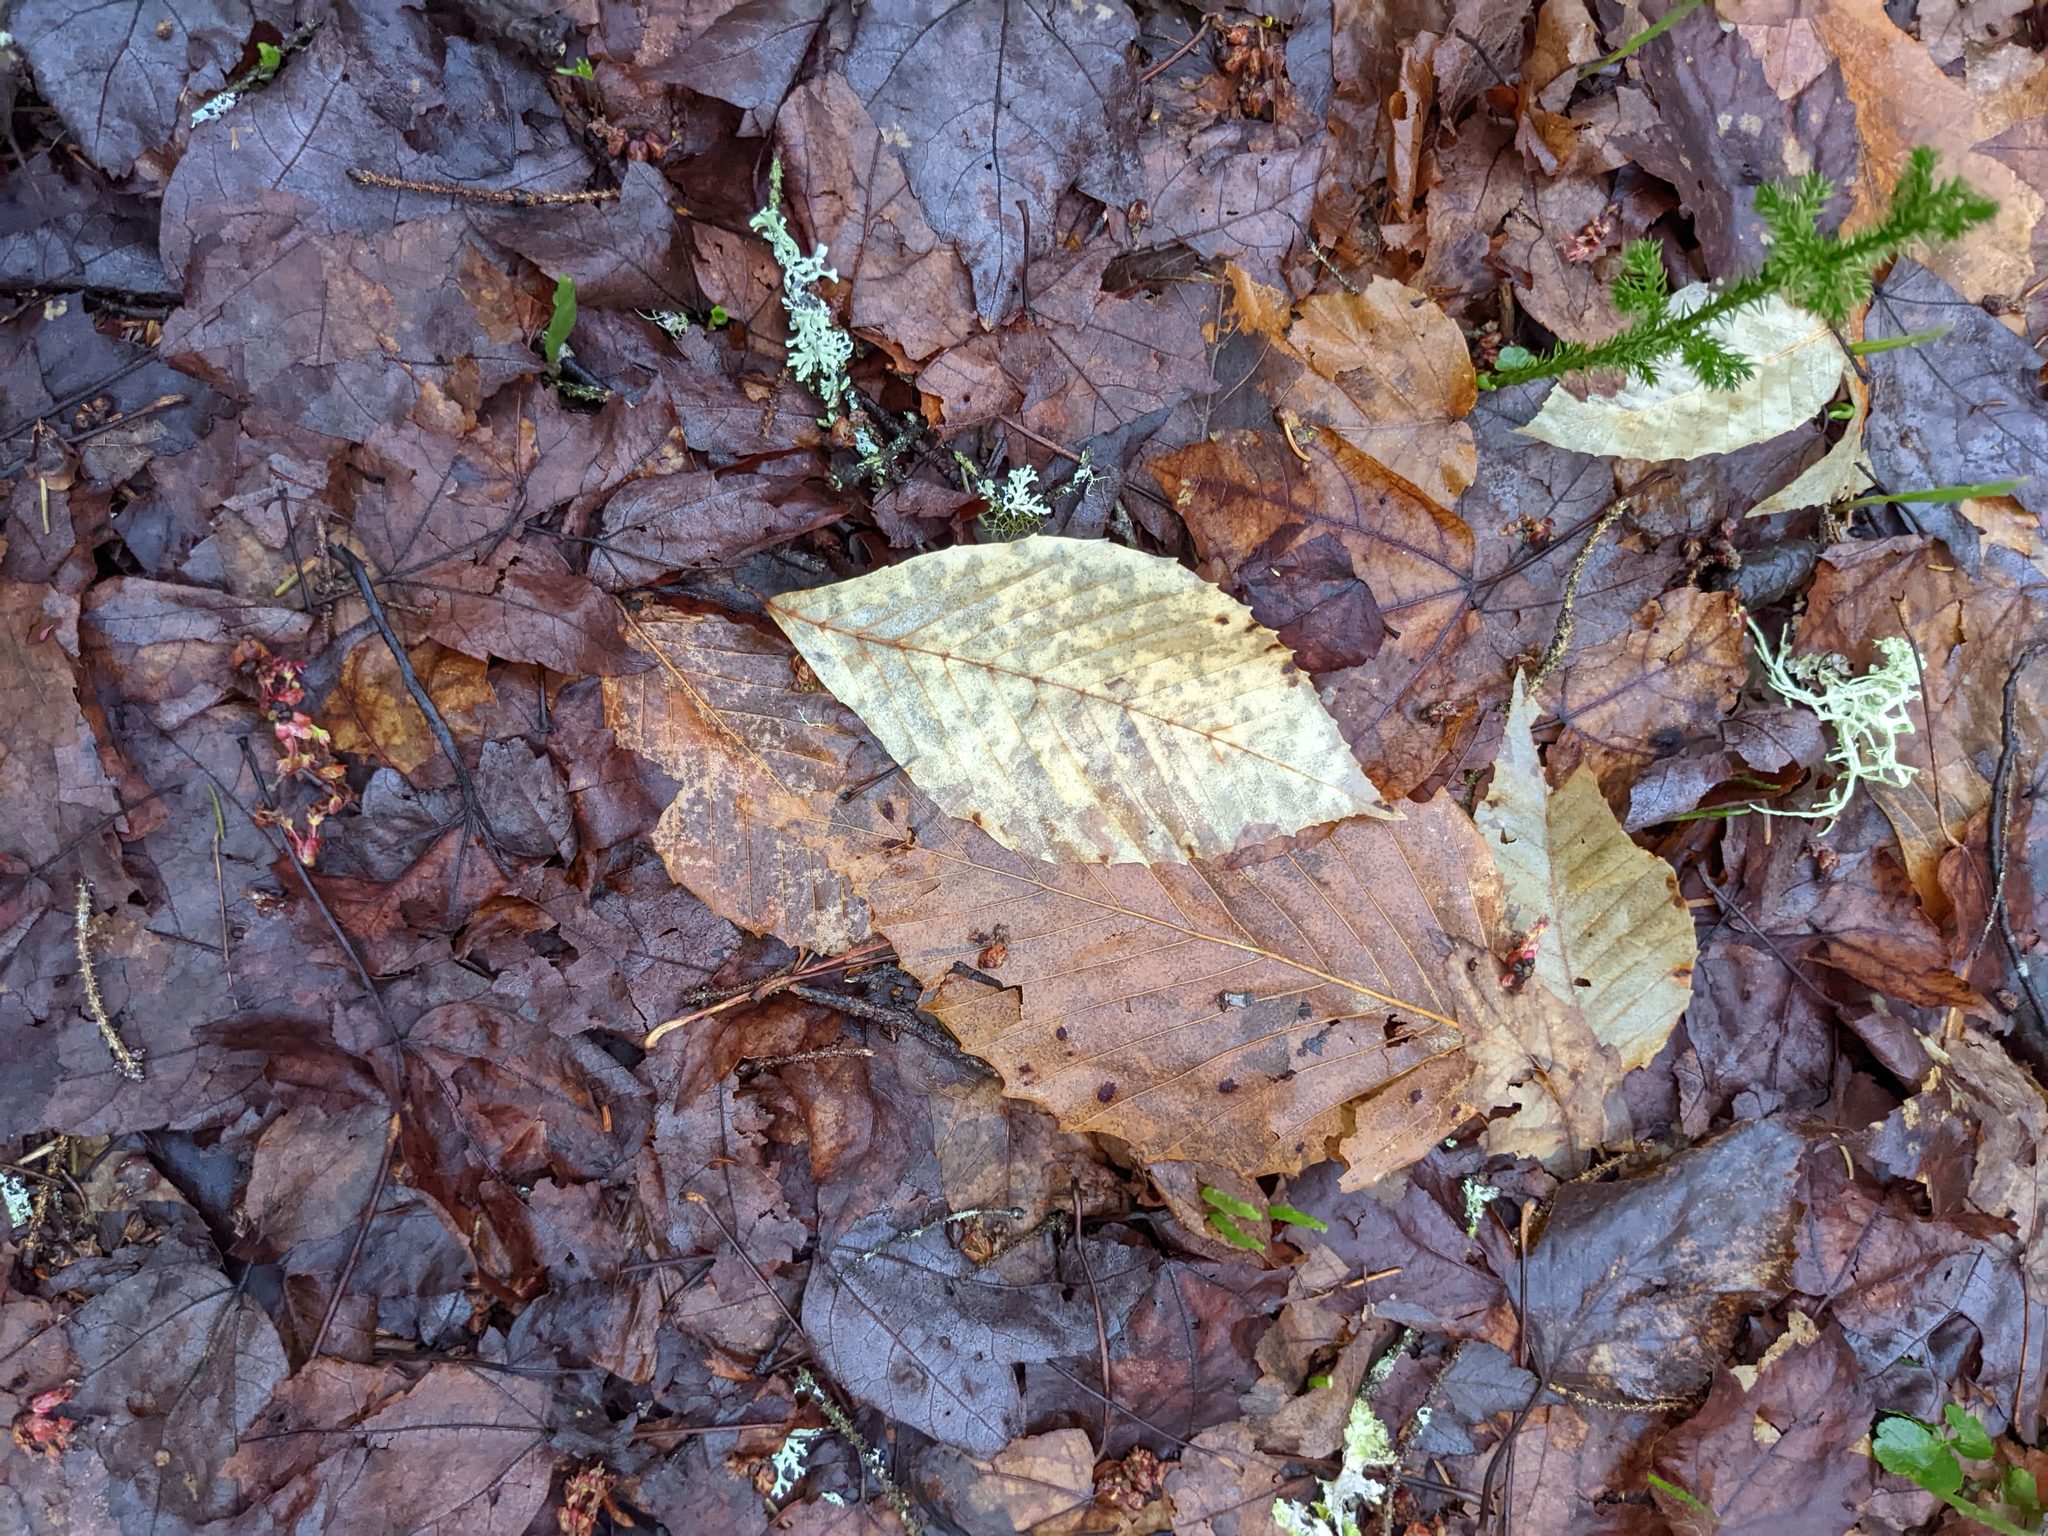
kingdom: Plantae
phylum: Tracheophyta
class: Magnoliopsida
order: Fagales
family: Fagaceae
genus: Fagus
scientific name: Fagus grandifolia
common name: American beech
